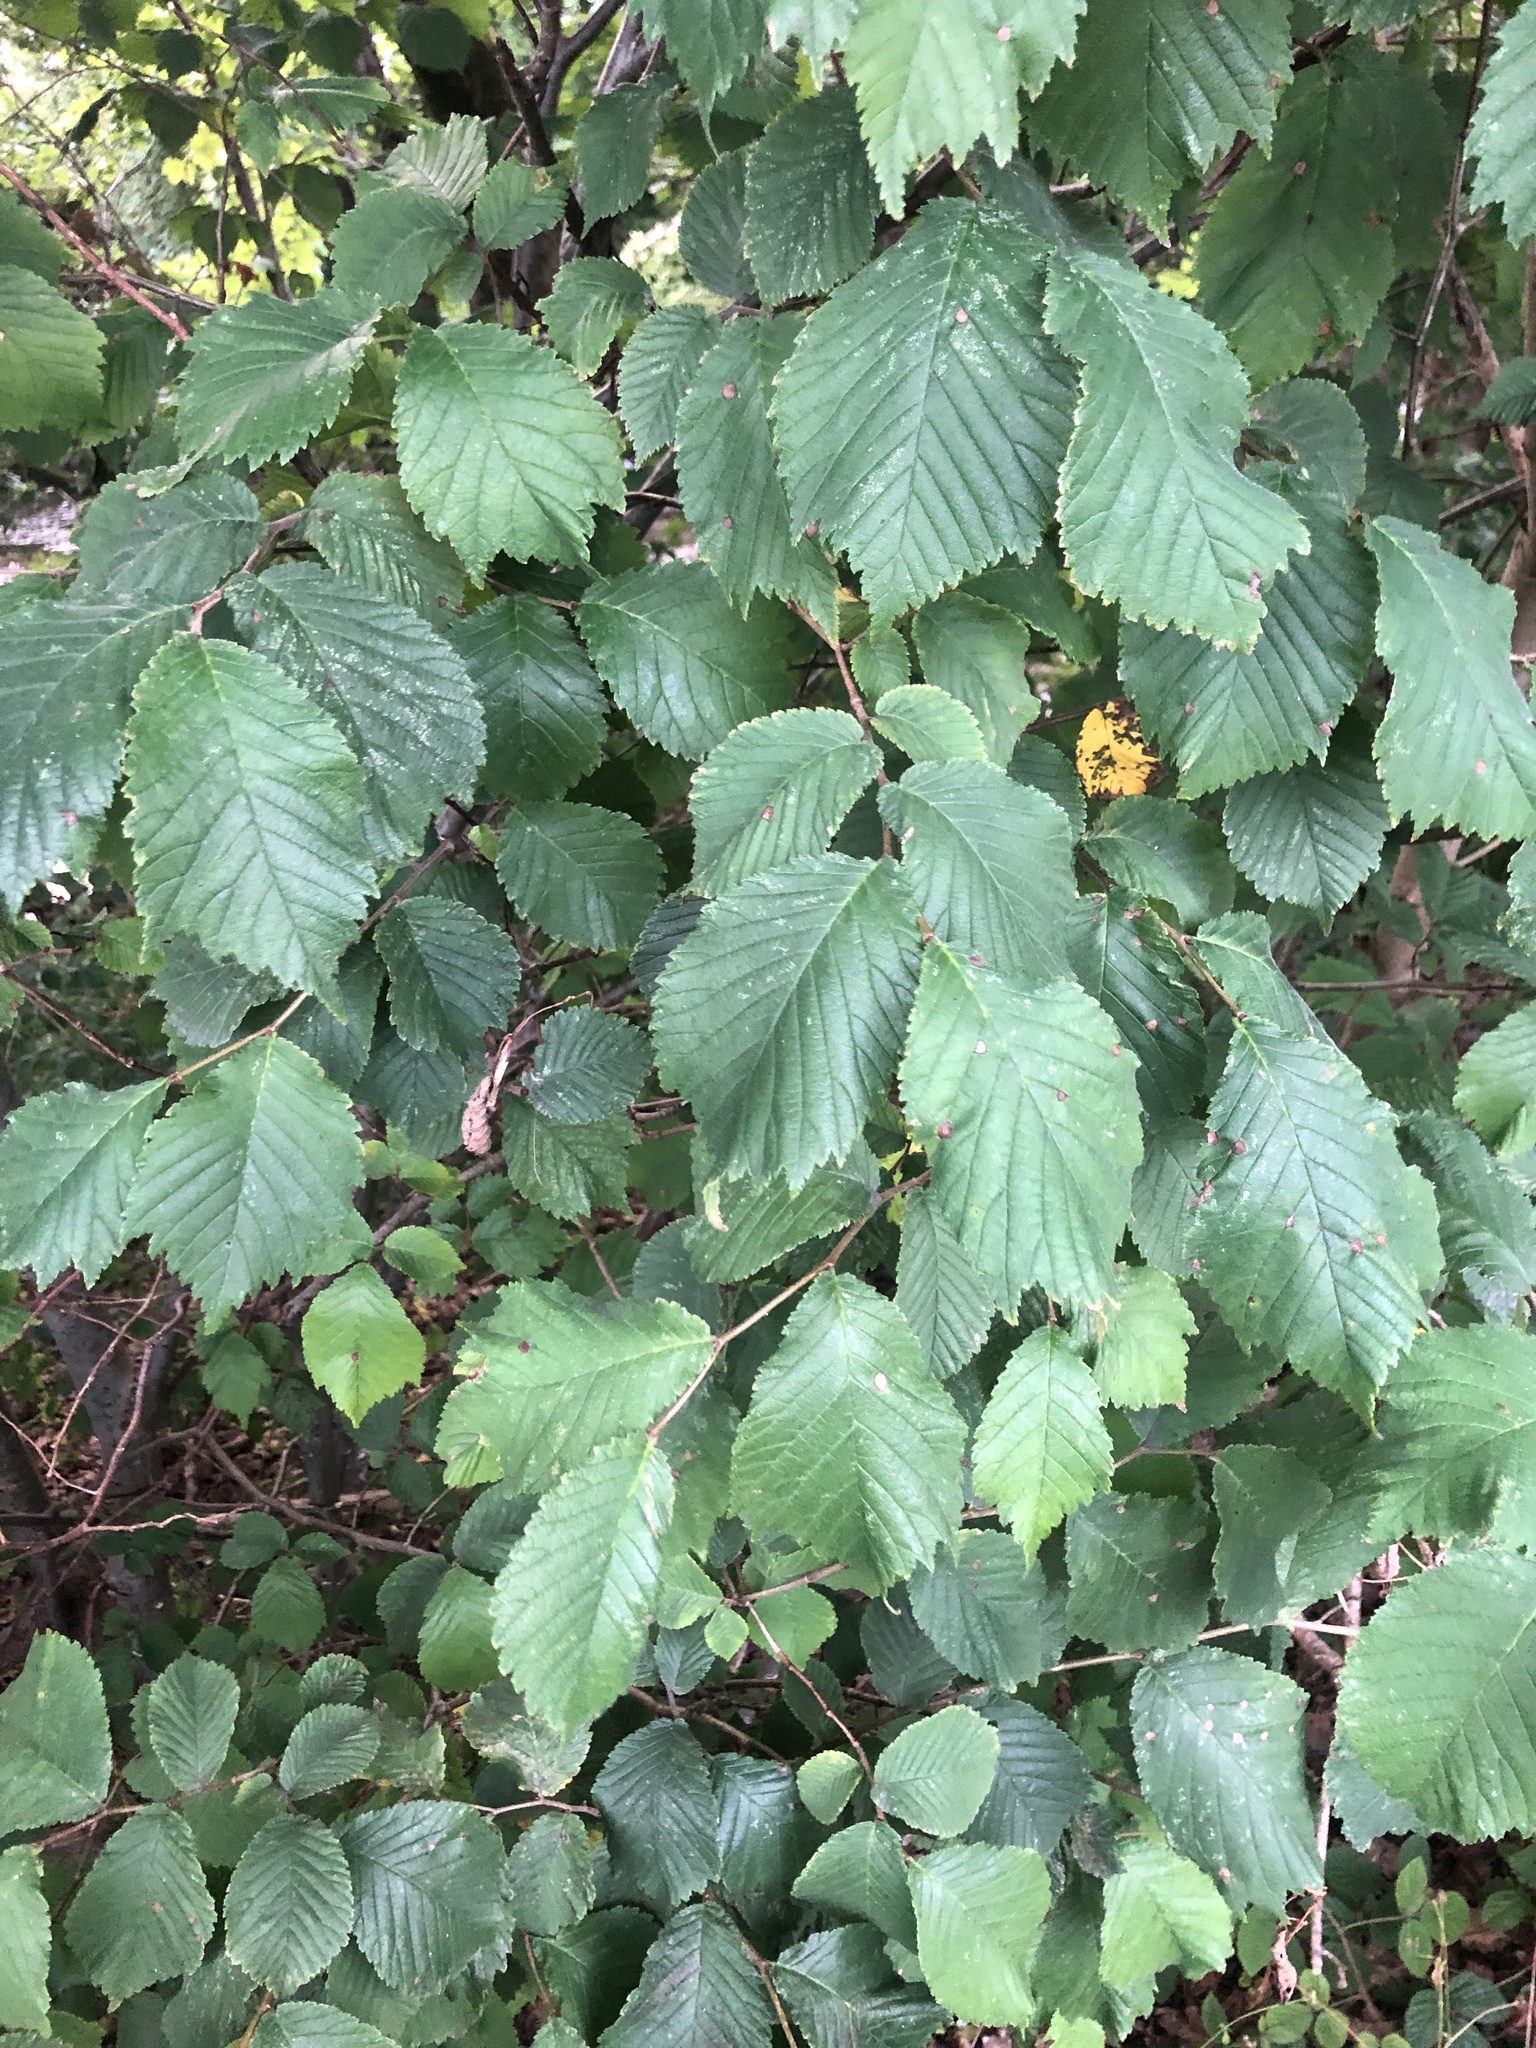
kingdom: Plantae
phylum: Tracheophyta
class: Magnoliopsida
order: Rosales
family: Ulmaceae
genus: Ulmus
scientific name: Ulmus glabra
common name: Wych elm
